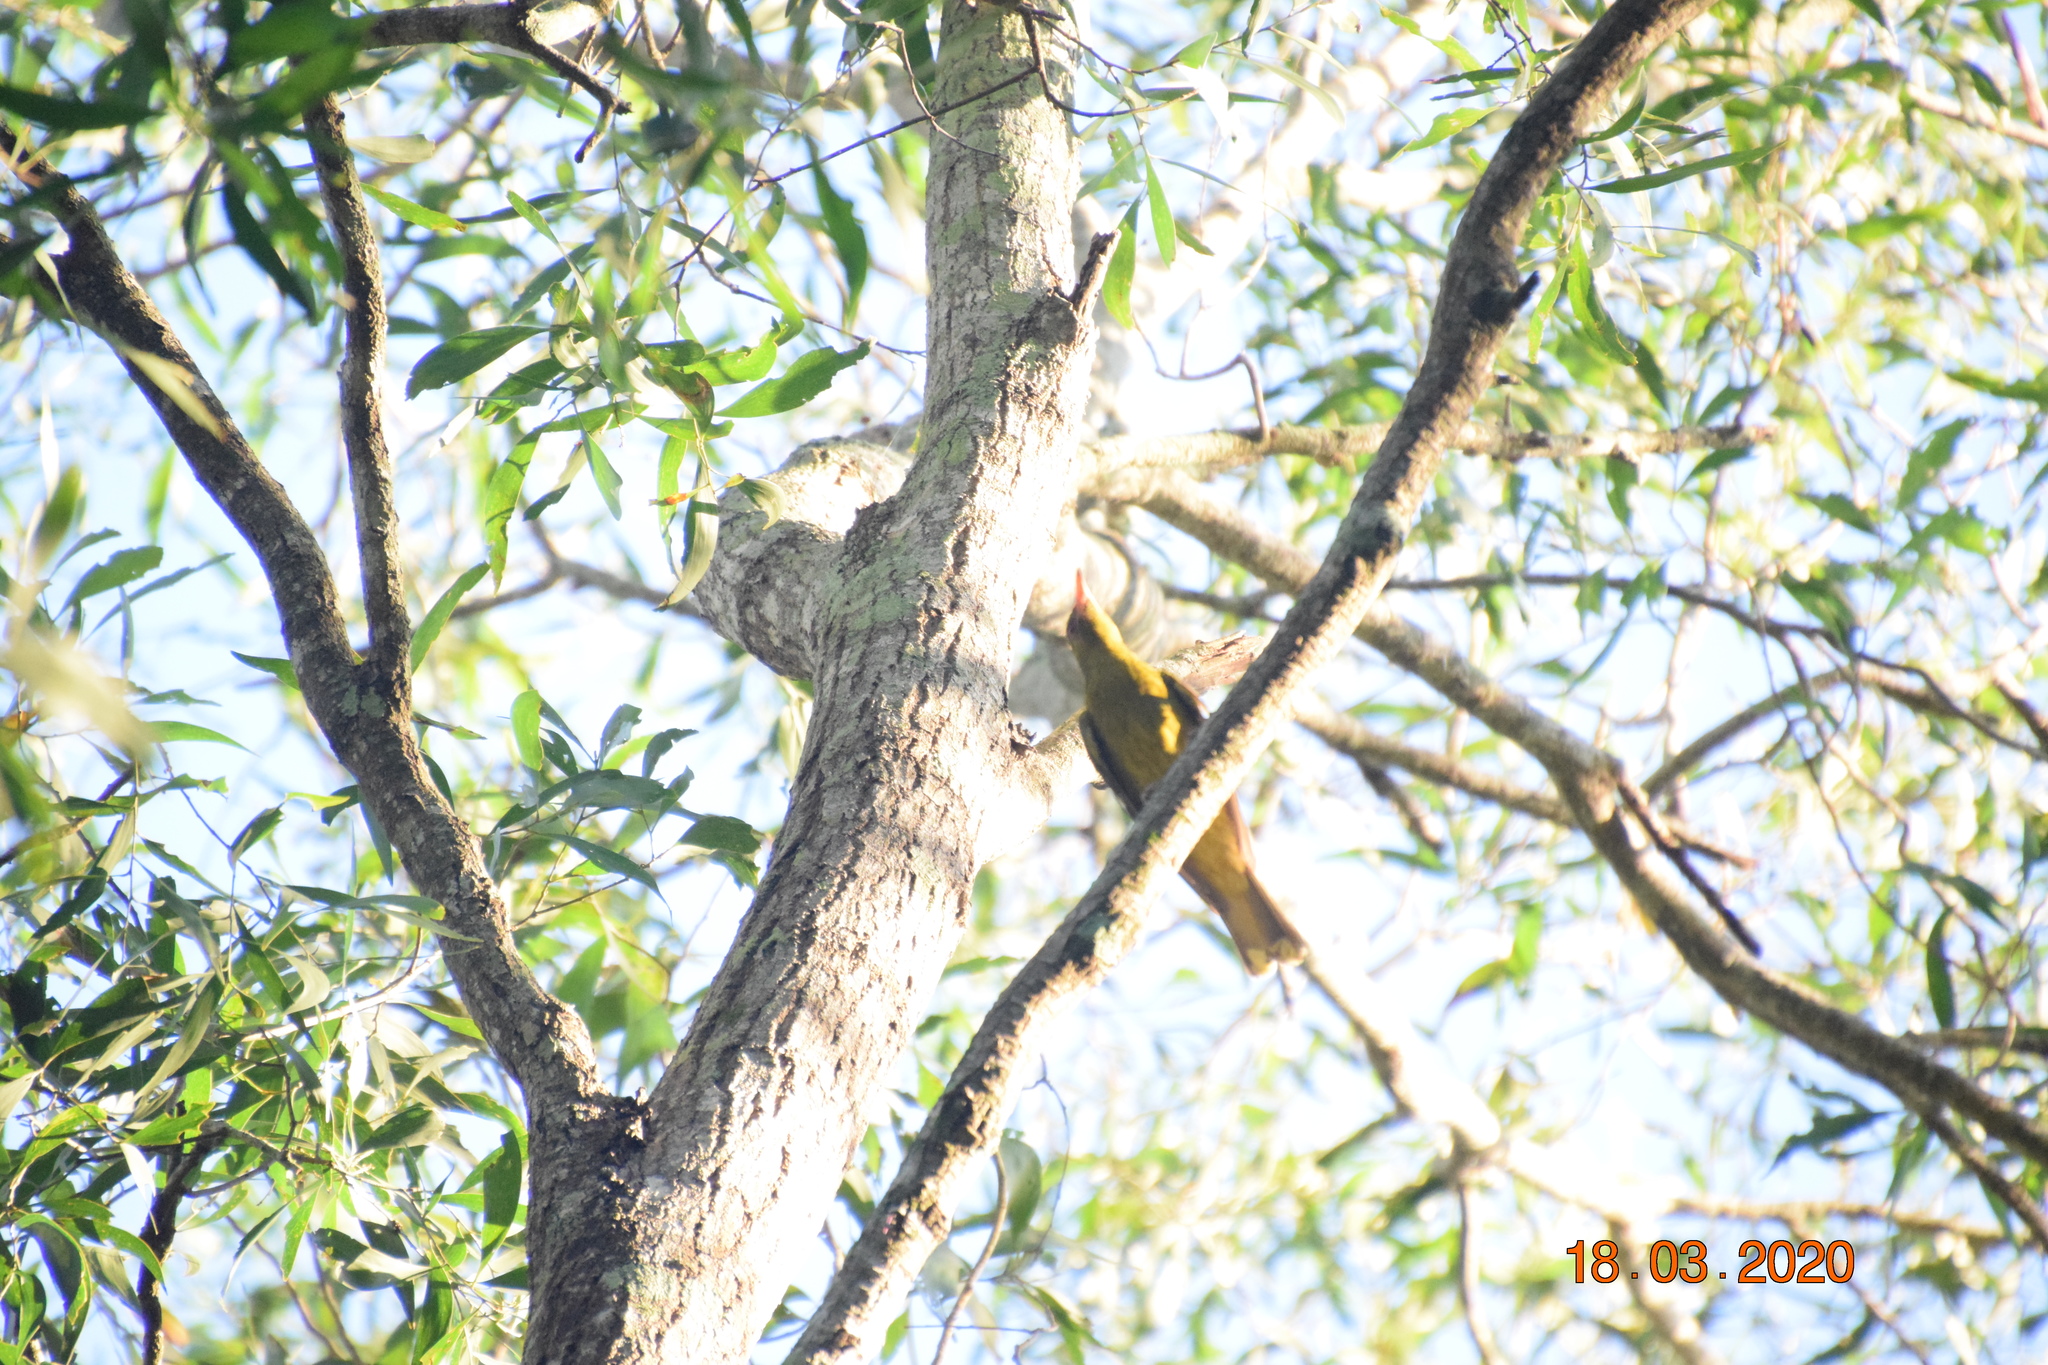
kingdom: Animalia
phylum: Chordata
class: Aves
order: Passeriformes
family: Oriolidae
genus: Oriolus
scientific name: Oriolus flavocinctus
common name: Green oriole
